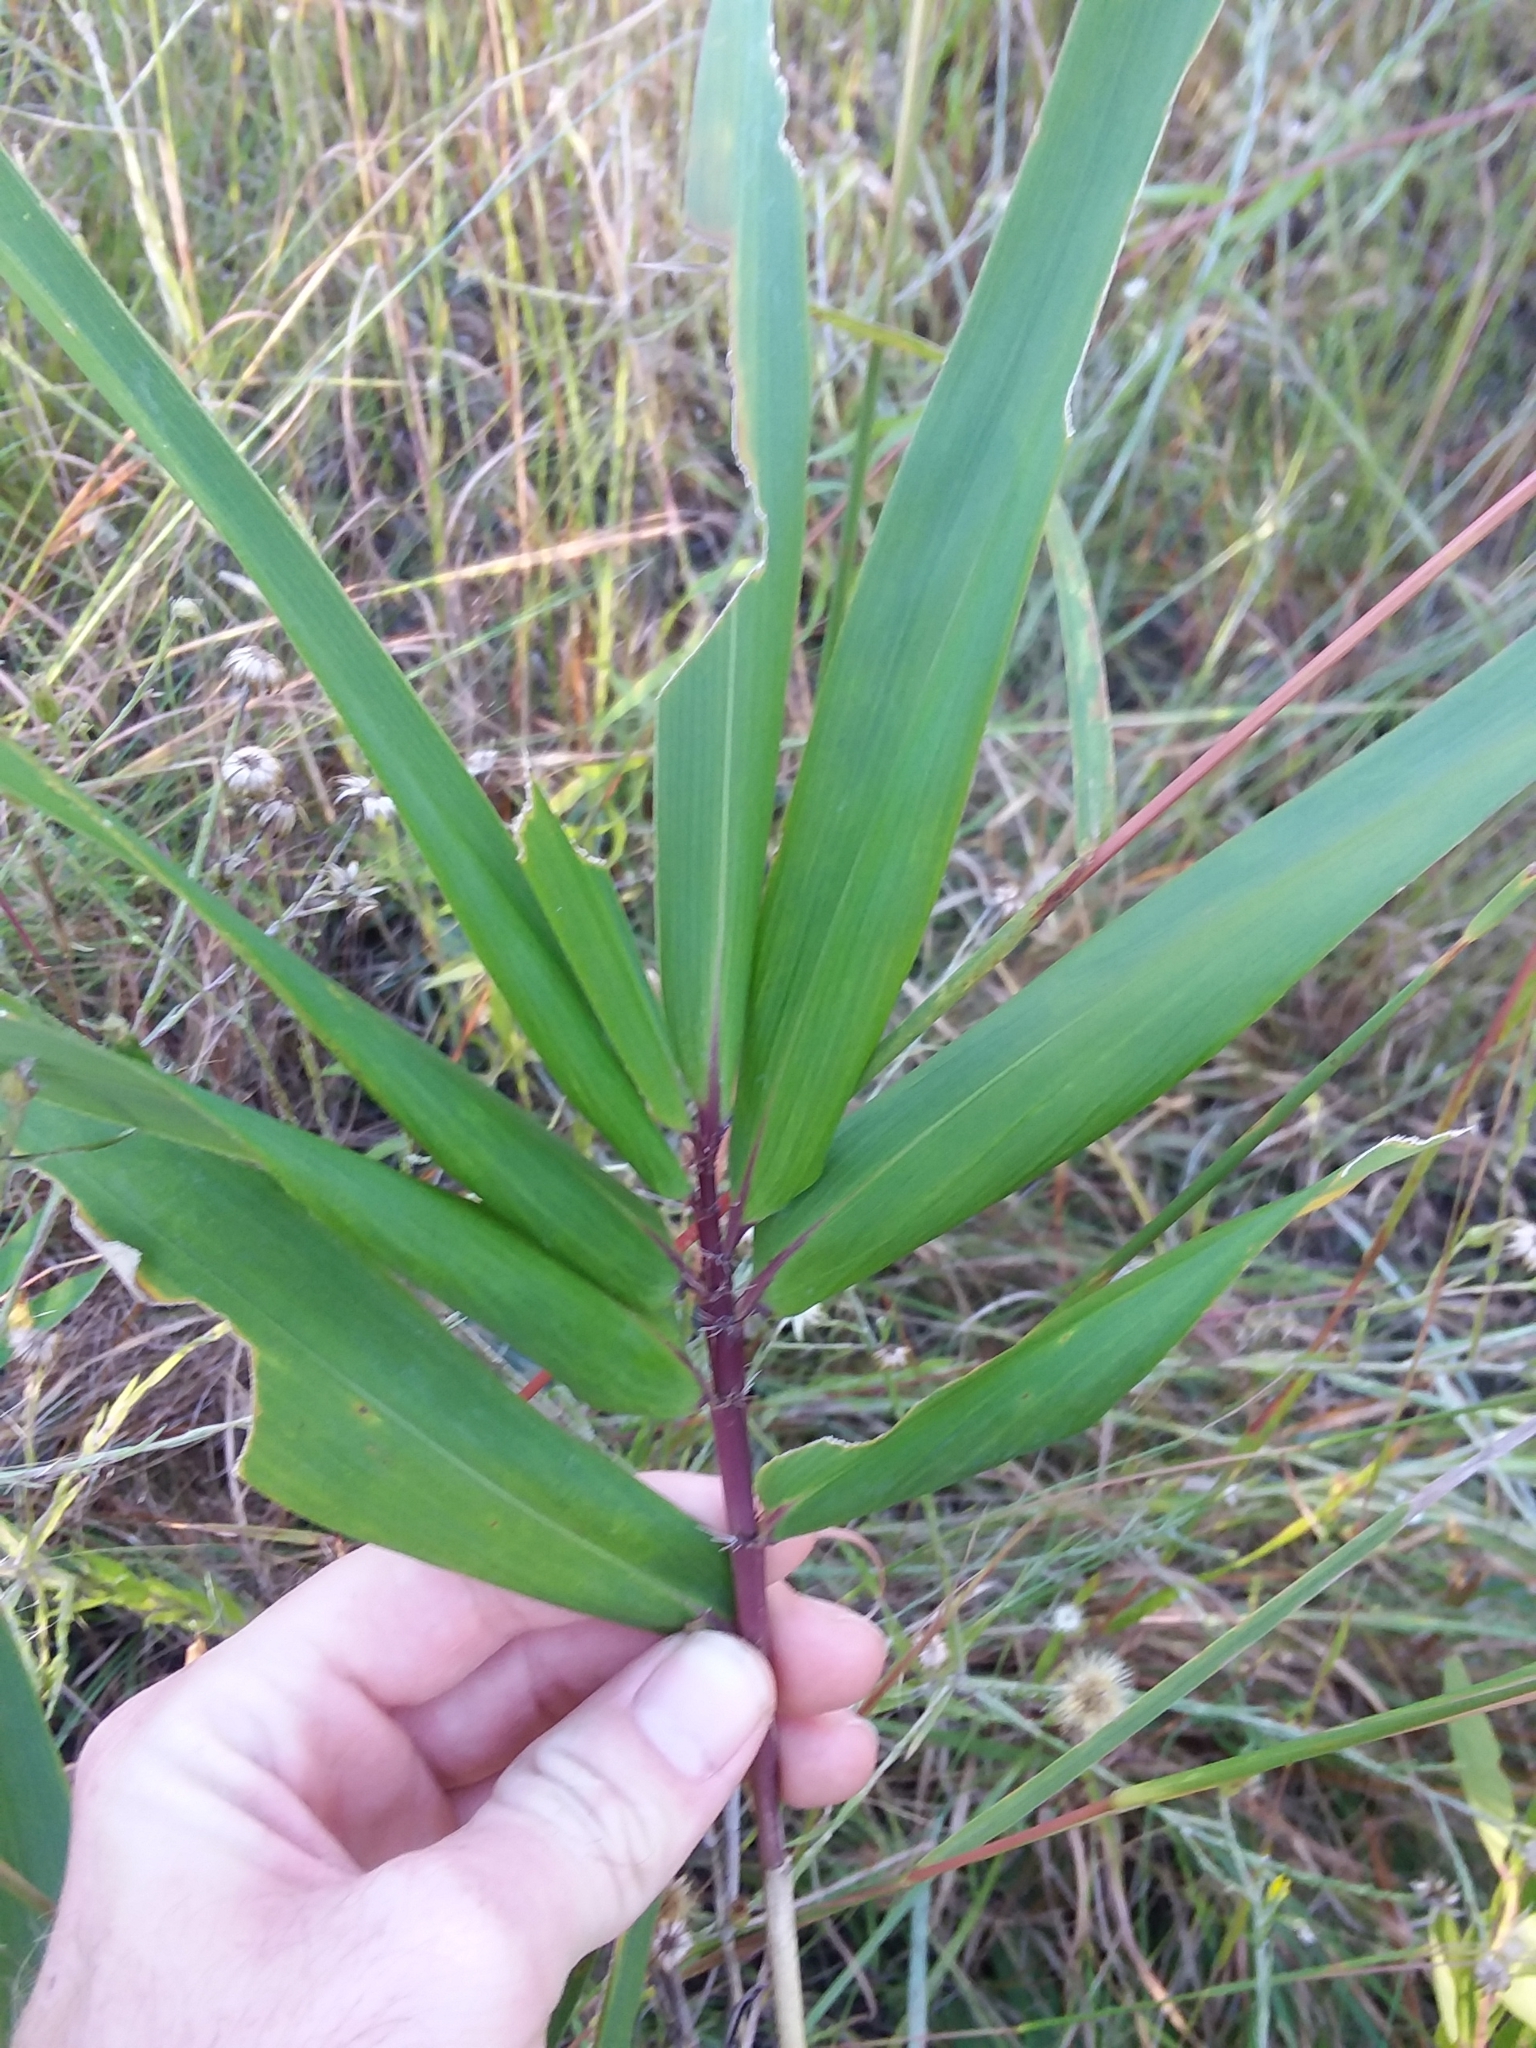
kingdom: Plantae
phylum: Tracheophyta
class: Liliopsida
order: Poales
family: Poaceae
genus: Arundinaria
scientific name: Arundinaria tecta
